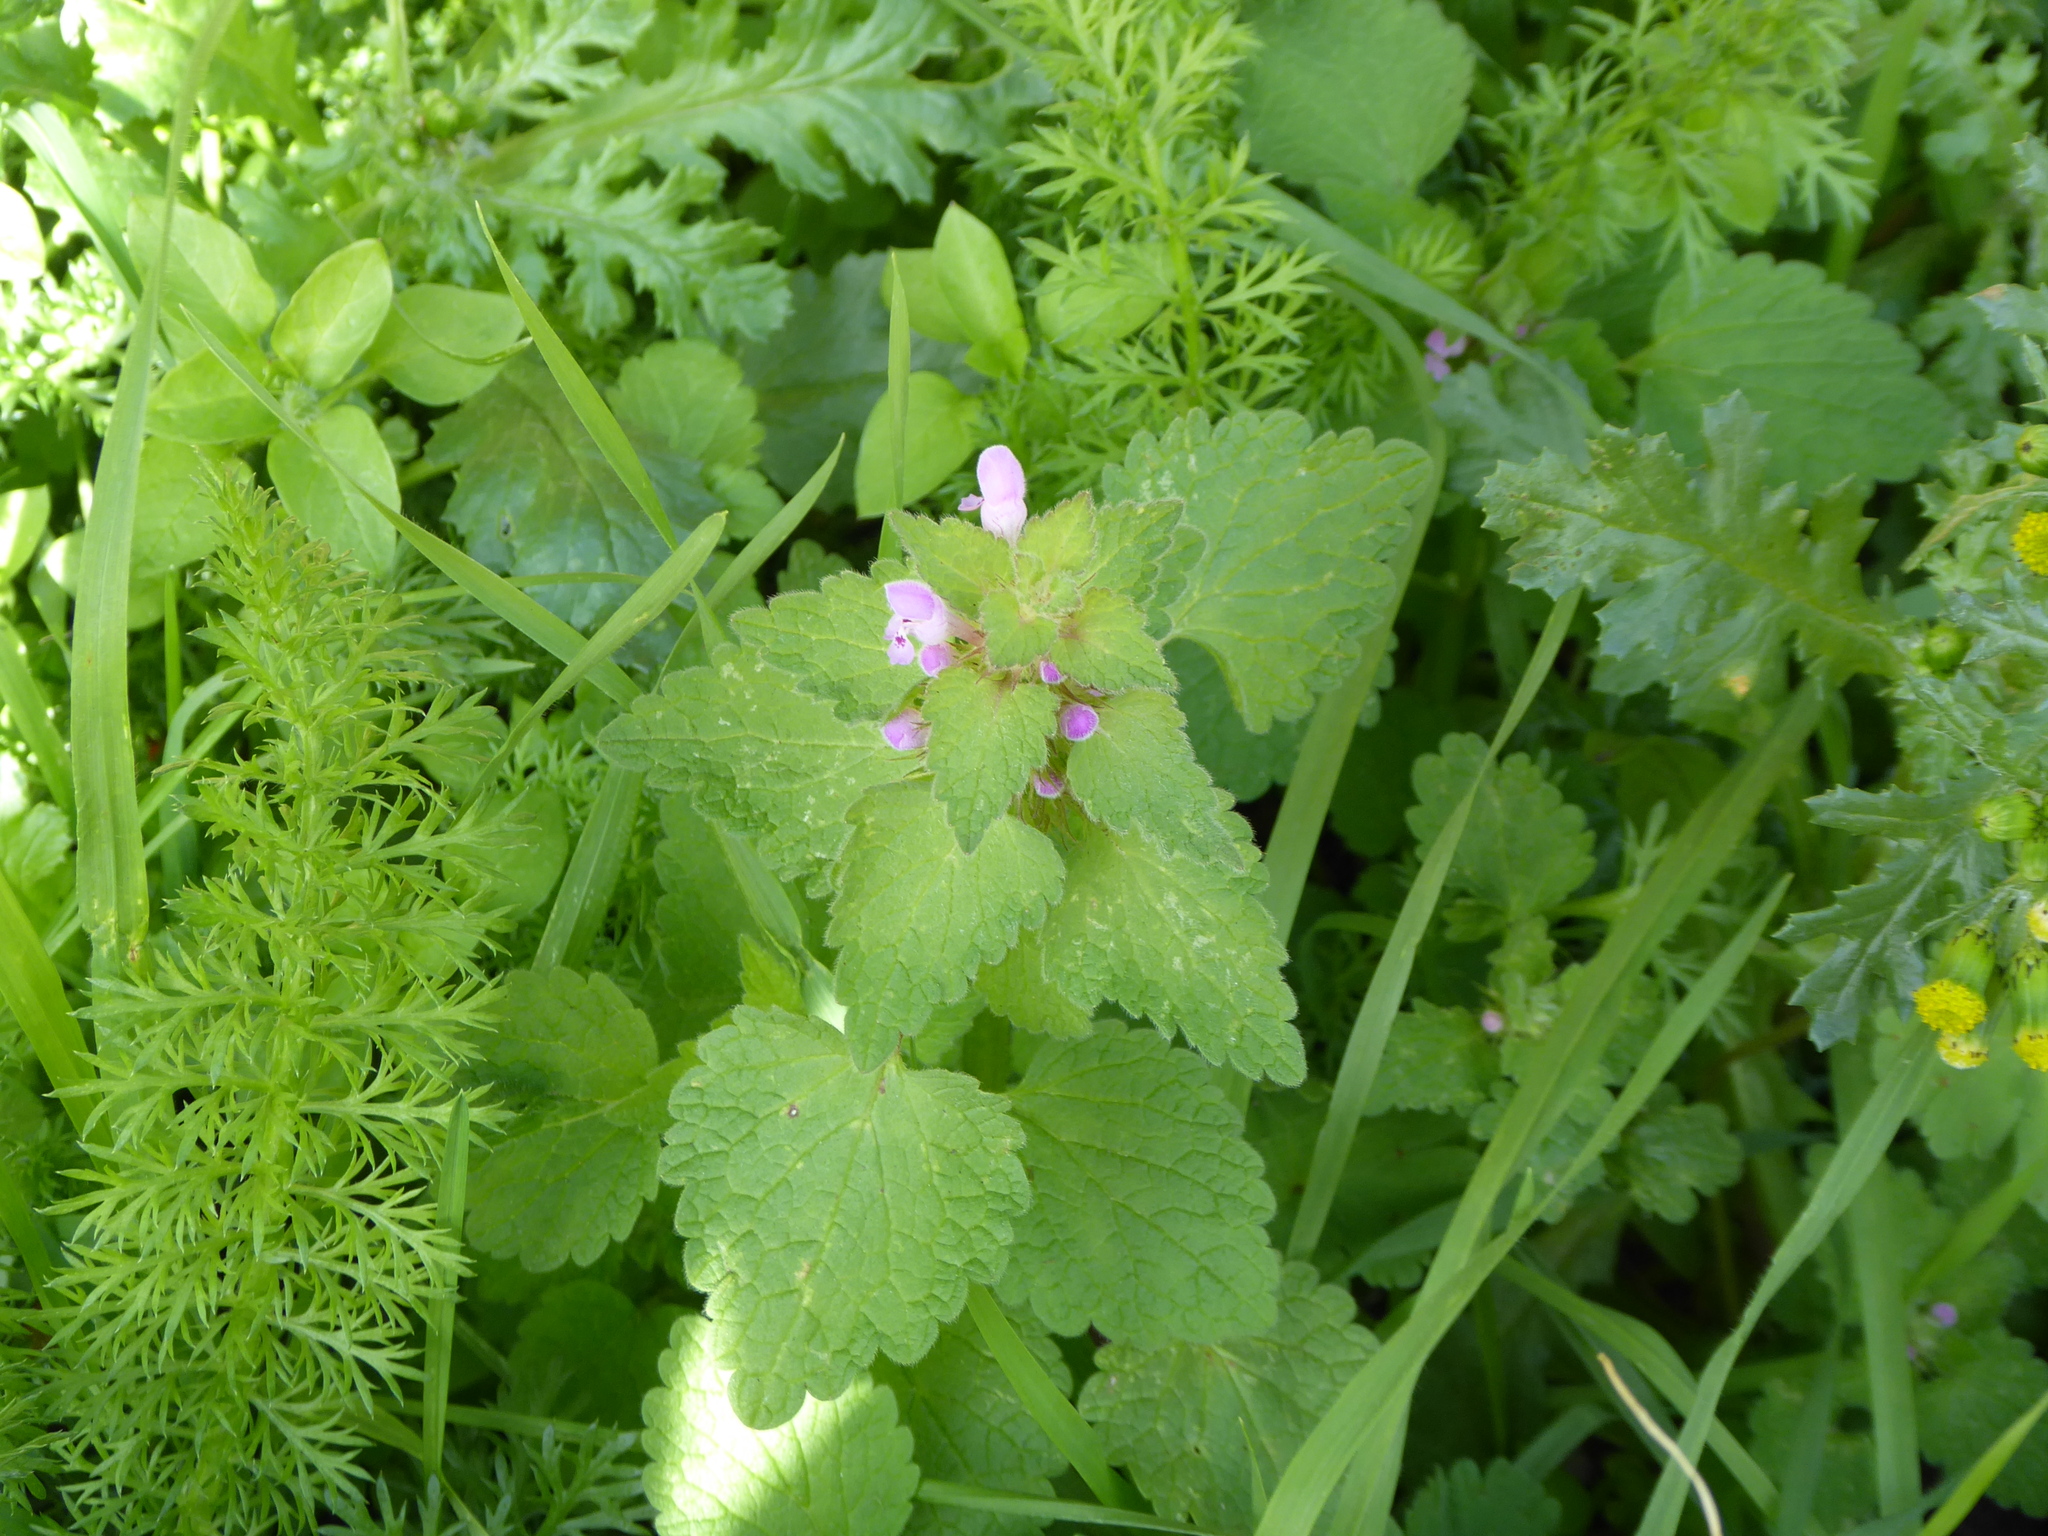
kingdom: Plantae
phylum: Tracheophyta
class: Magnoliopsida
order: Lamiales
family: Lamiaceae
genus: Lamium
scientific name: Lamium purpureum
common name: Red dead-nettle
